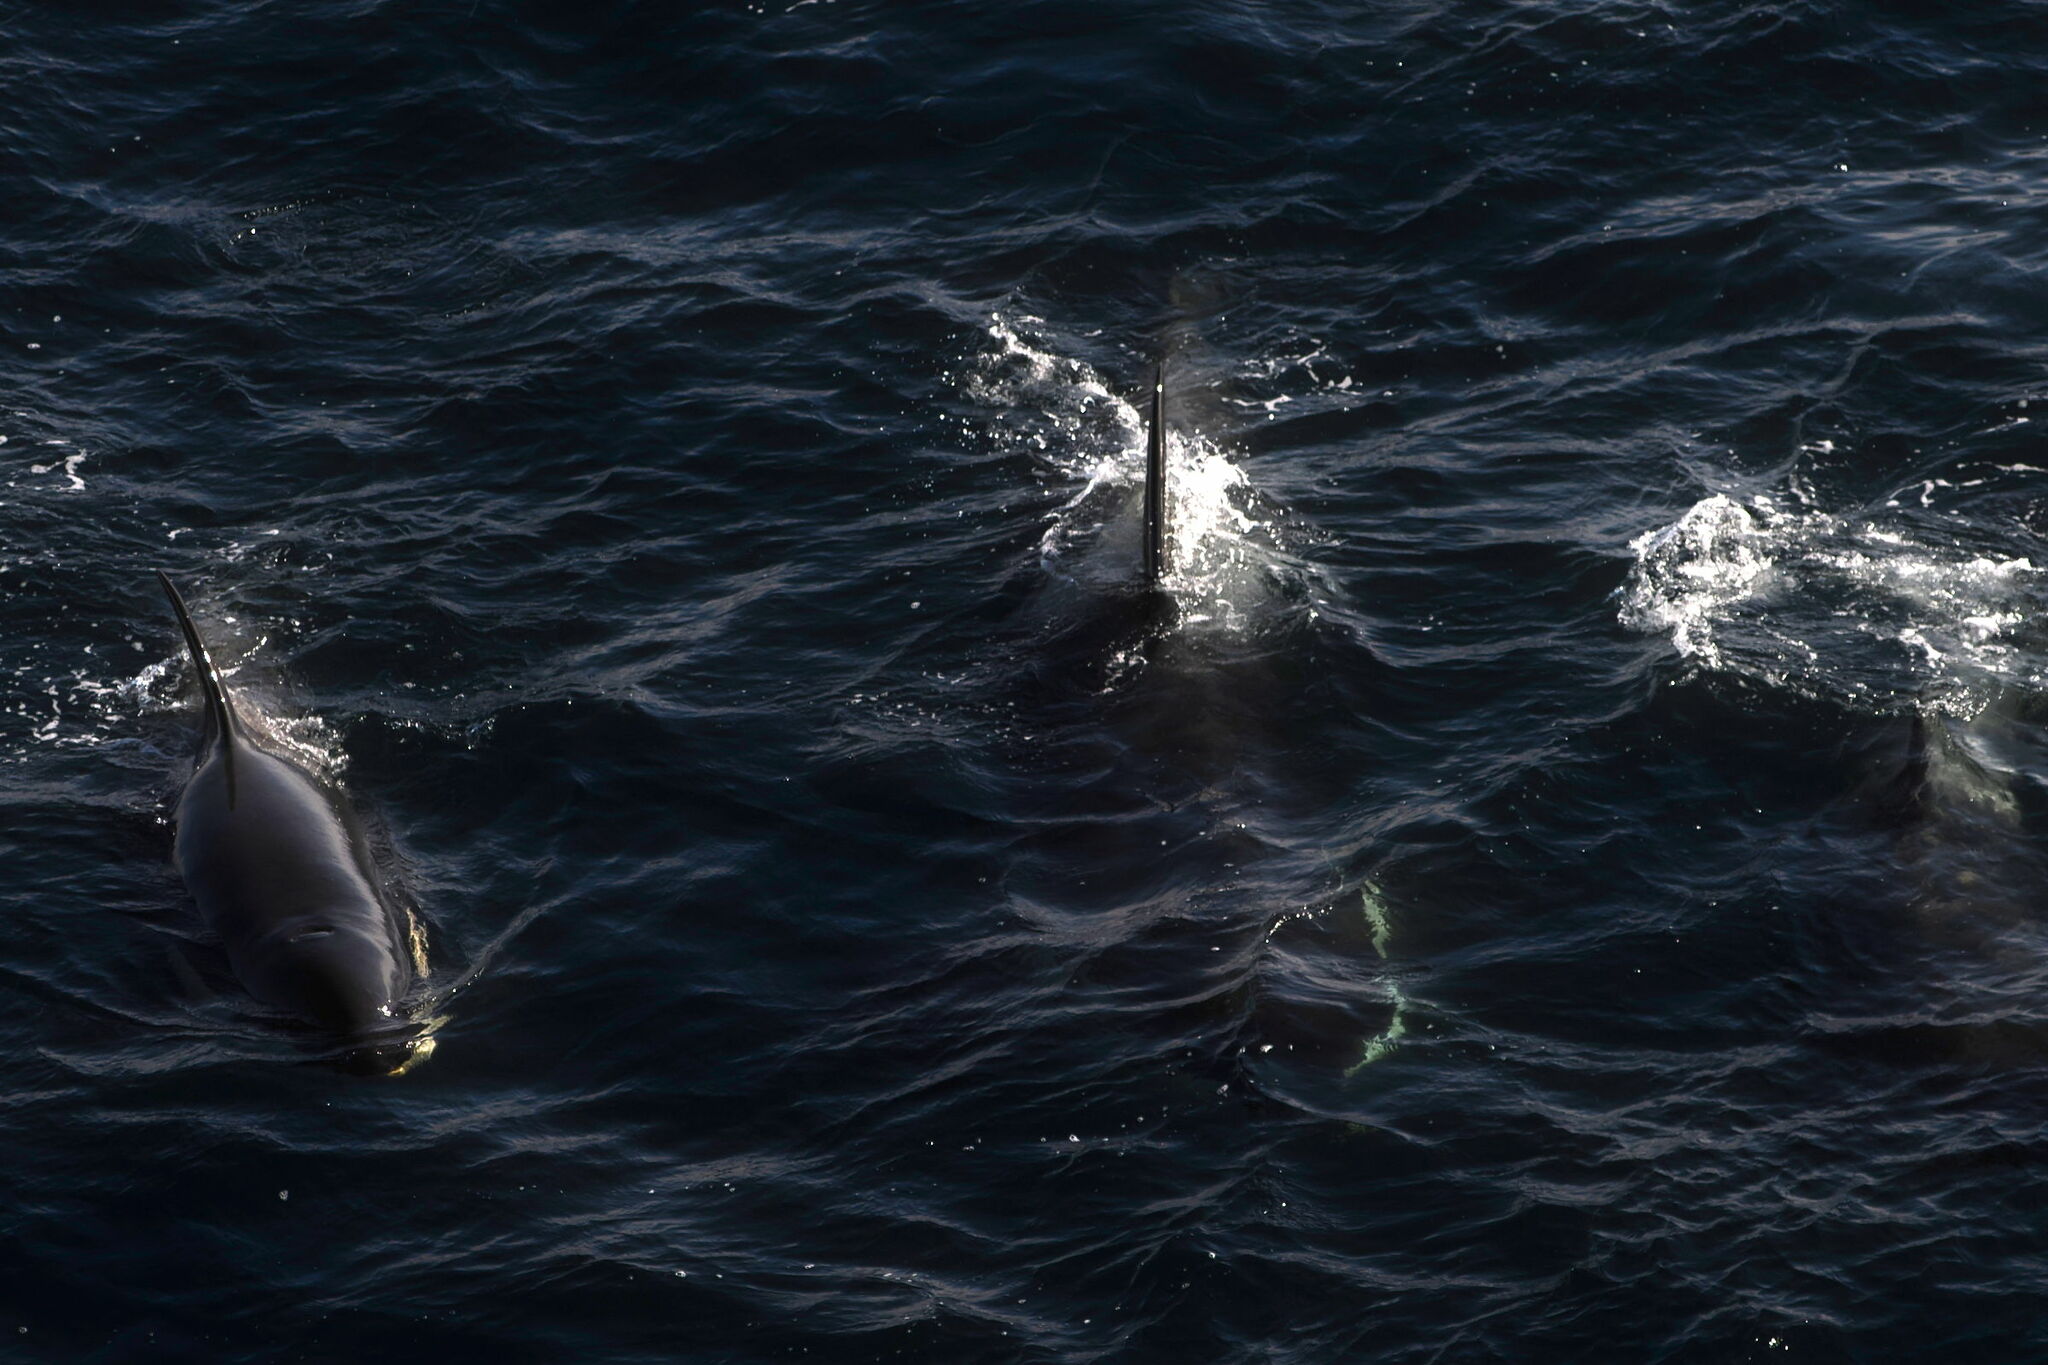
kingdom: Animalia
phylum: Chordata
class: Mammalia
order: Cetacea
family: Delphinidae
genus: Orcinus
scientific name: Orcinus orca
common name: Killer whale
